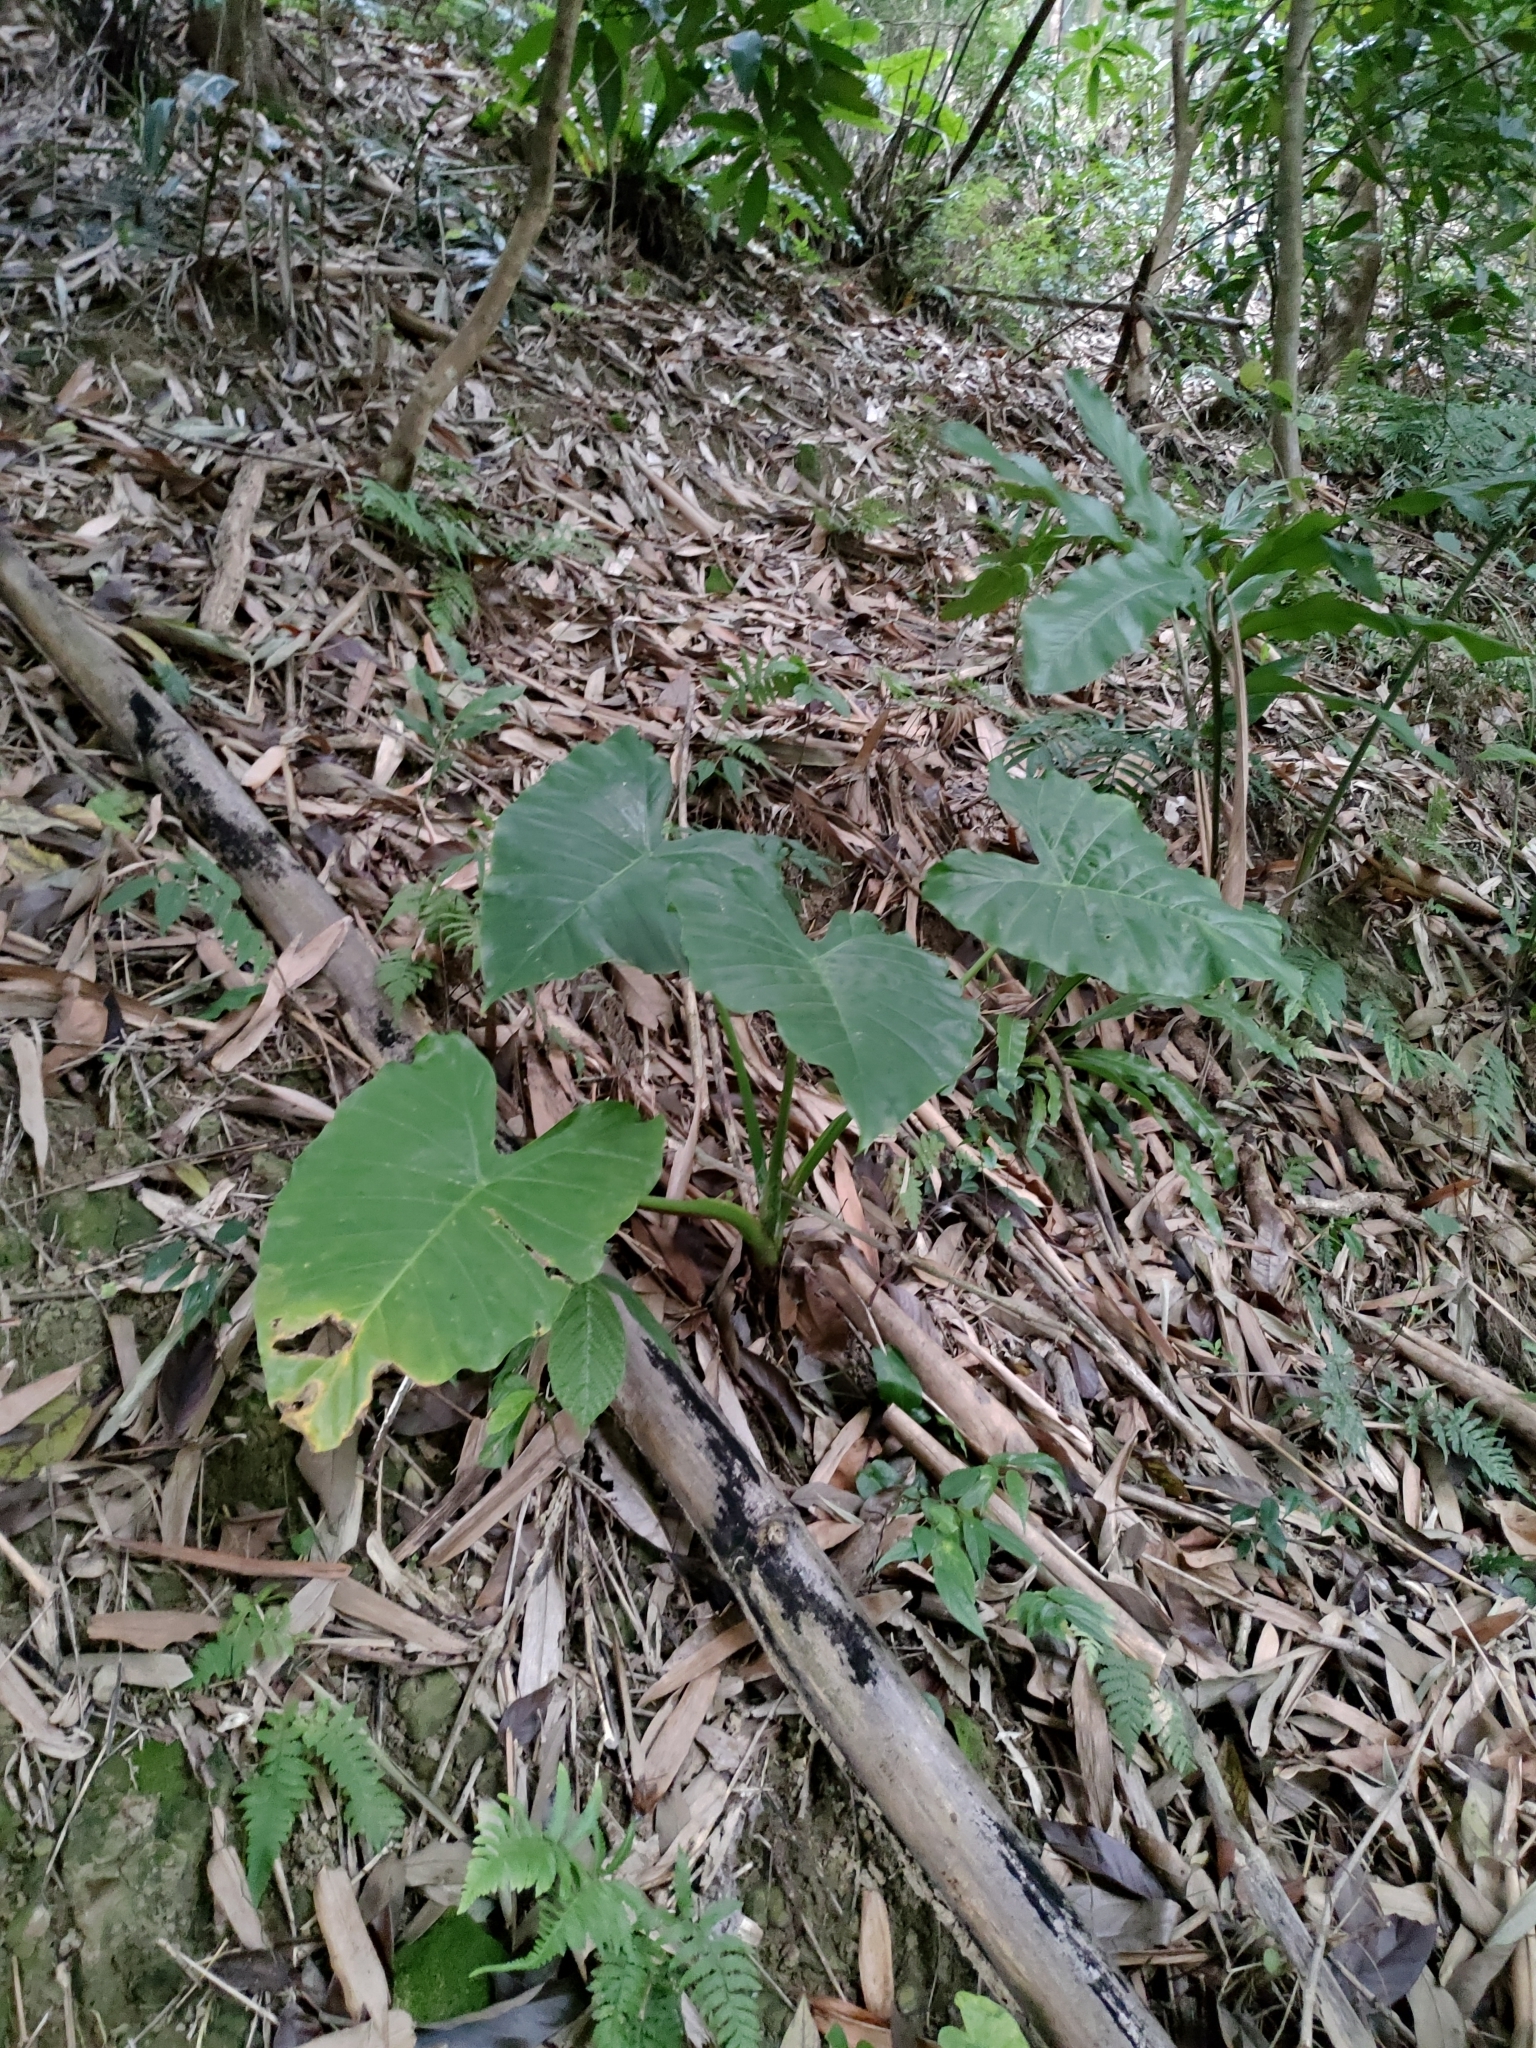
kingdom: Plantae
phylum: Tracheophyta
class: Liliopsida
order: Alismatales
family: Araceae
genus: Alocasia
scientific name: Alocasia odora
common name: Asian taro
